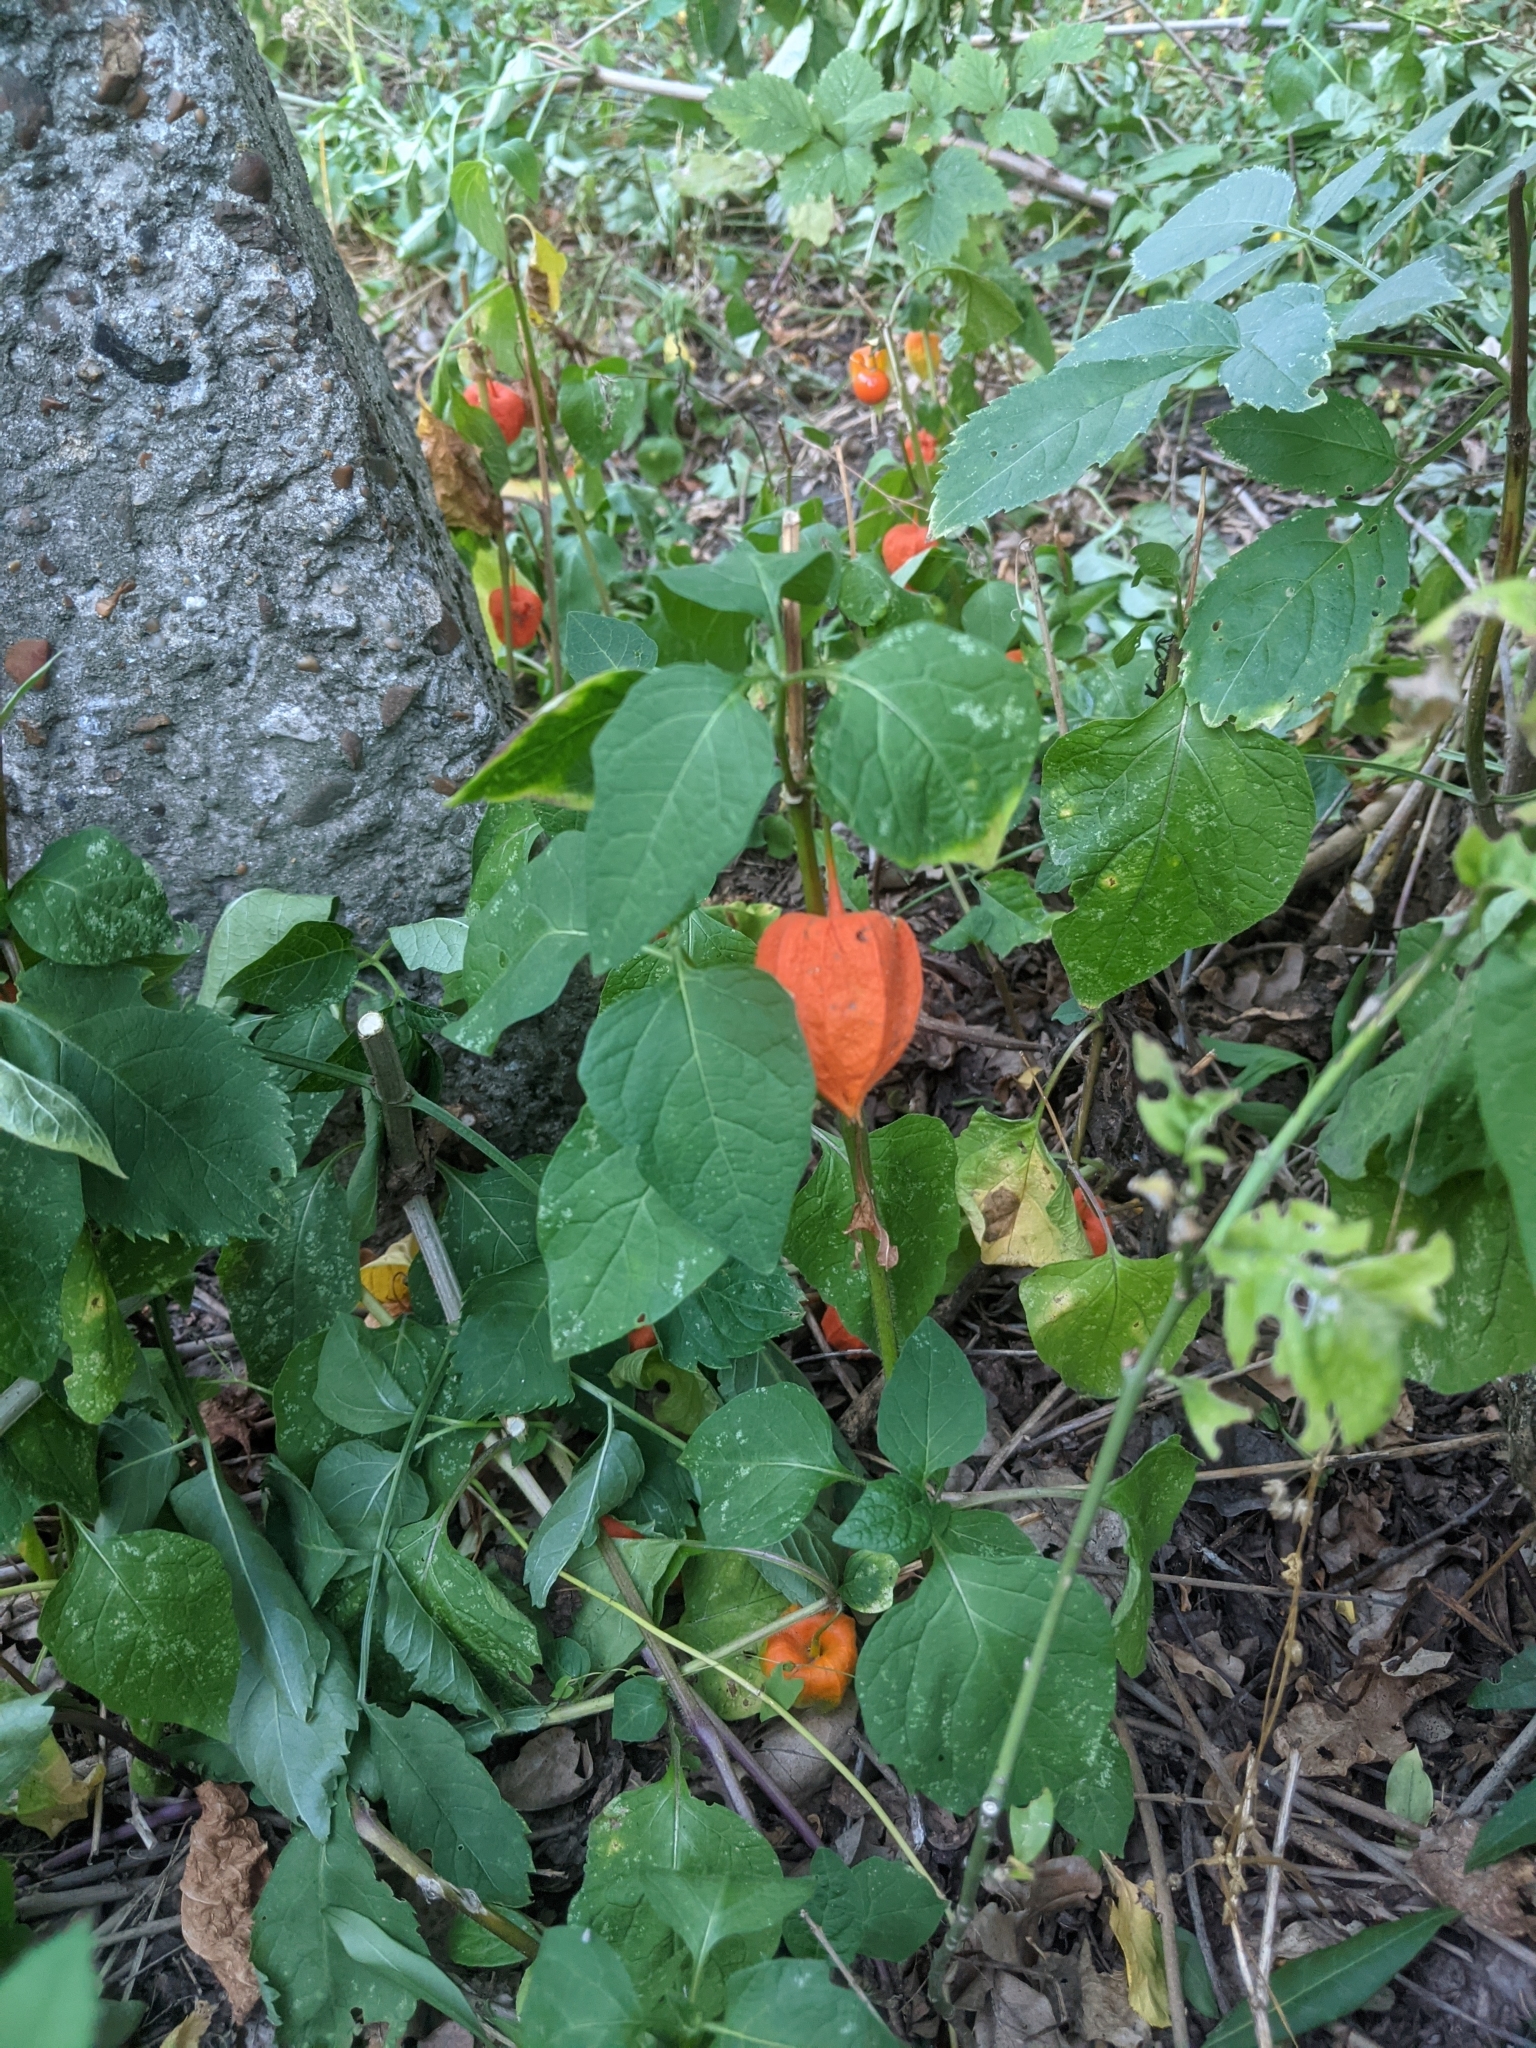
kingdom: Plantae
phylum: Tracheophyta
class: Magnoliopsida
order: Solanales
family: Solanaceae
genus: Alkekengi
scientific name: Alkekengi officinarum
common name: Japanese-lantern
